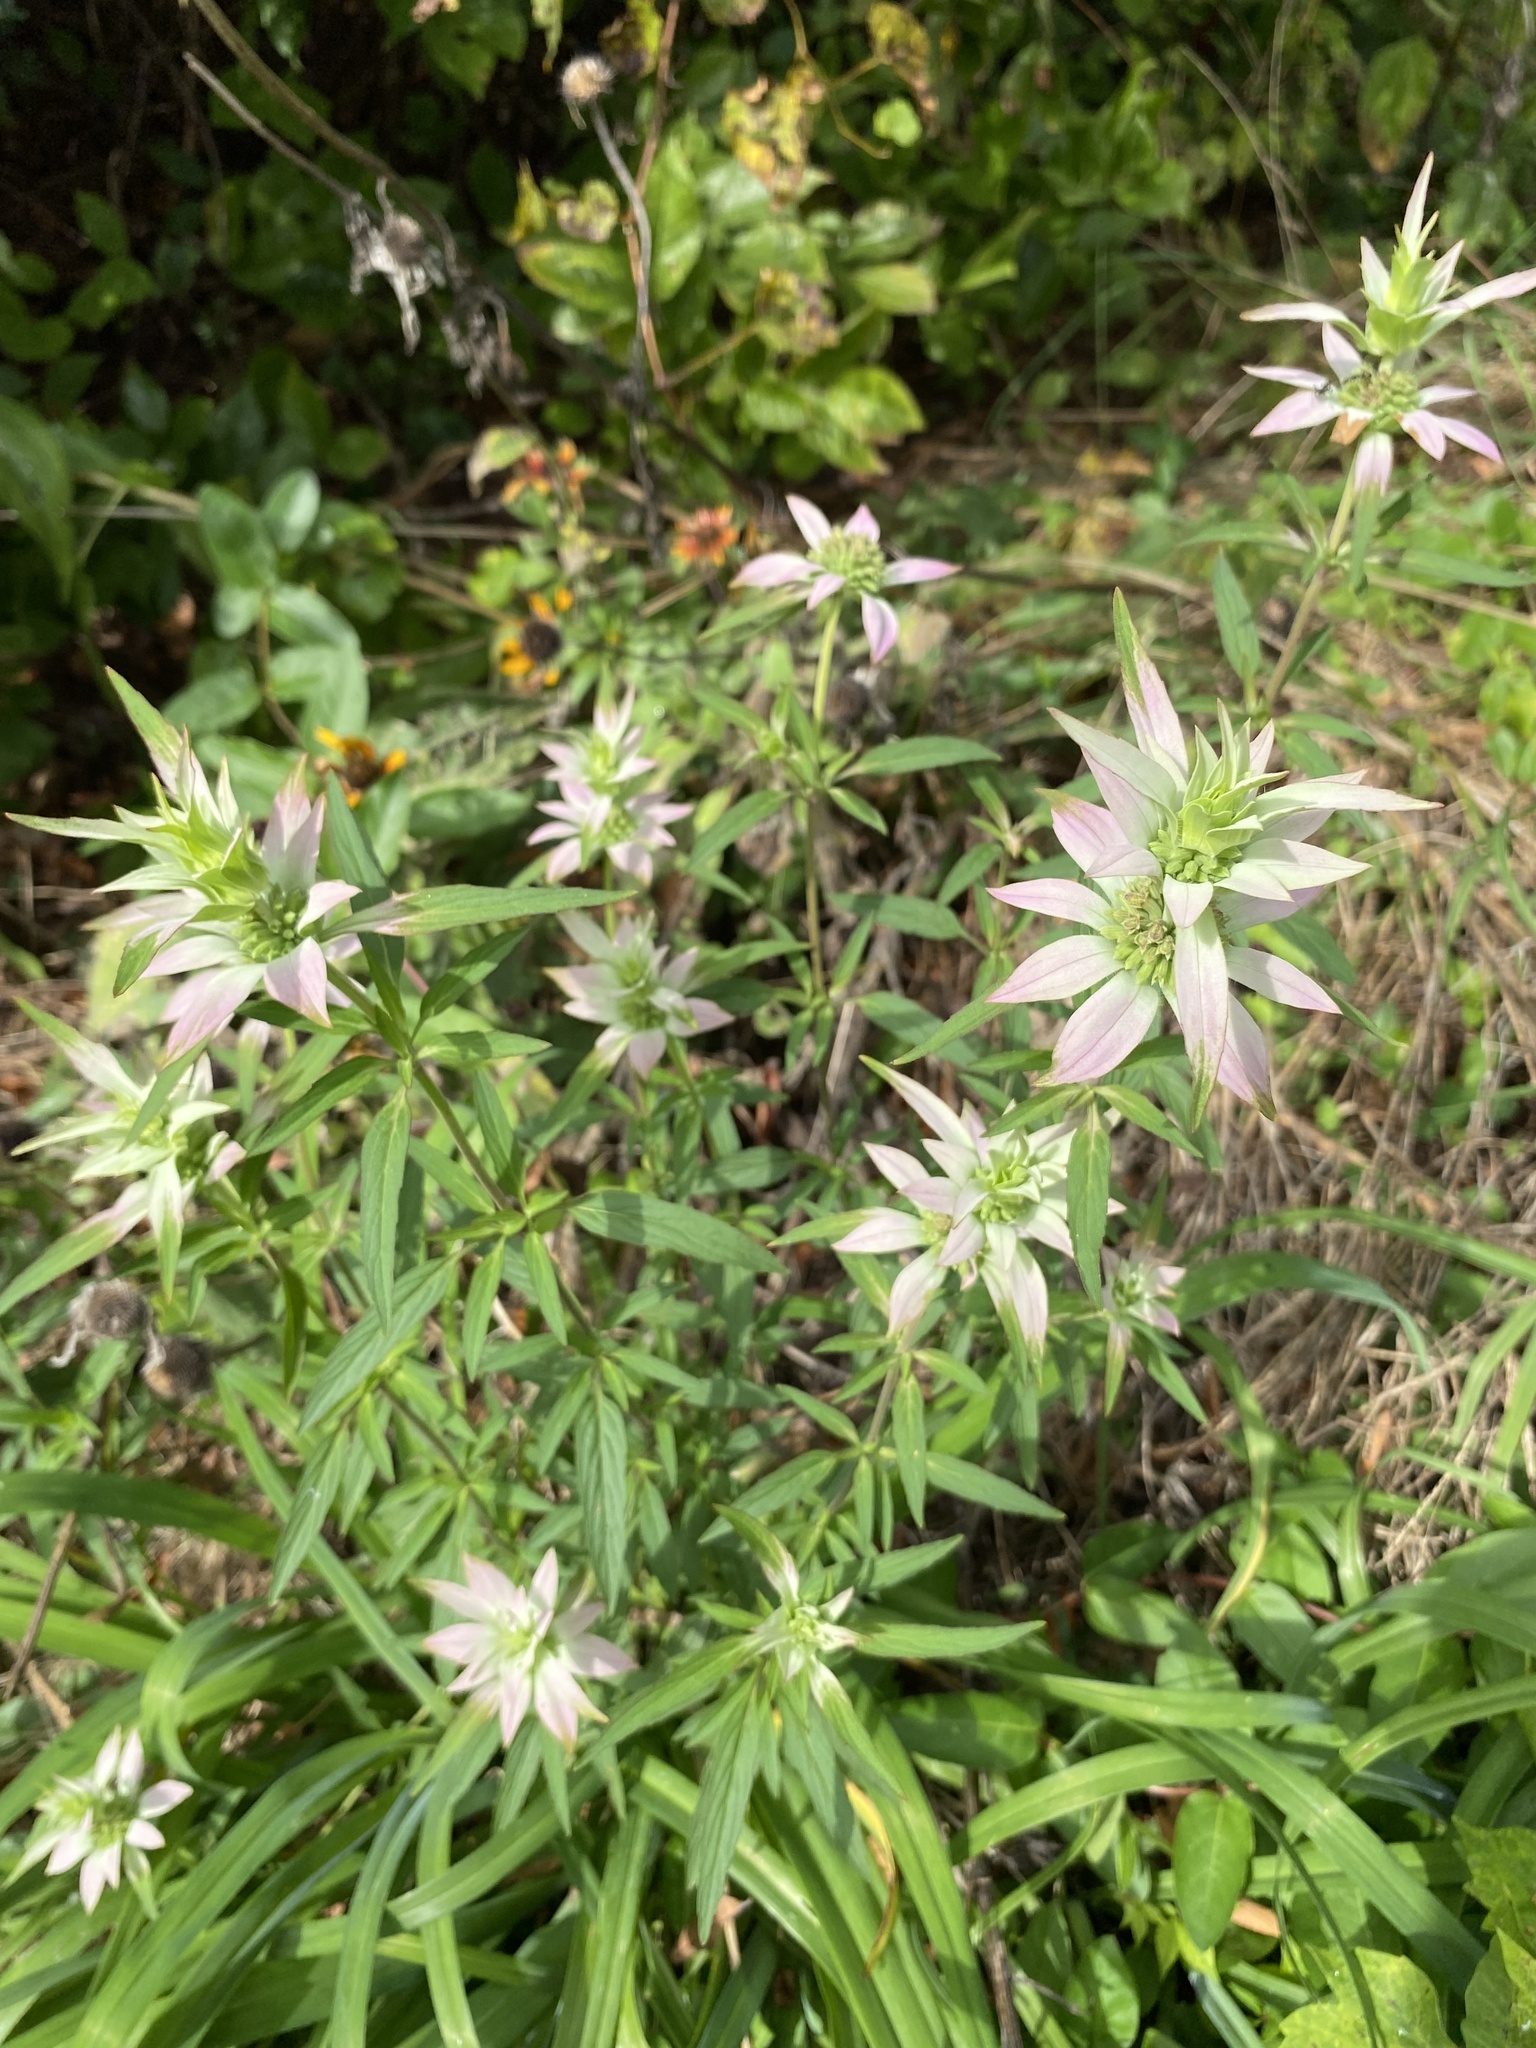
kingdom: Plantae
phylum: Tracheophyta
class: Magnoliopsida
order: Lamiales
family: Lamiaceae
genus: Monarda
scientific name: Monarda punctata
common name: Dotted monarda
